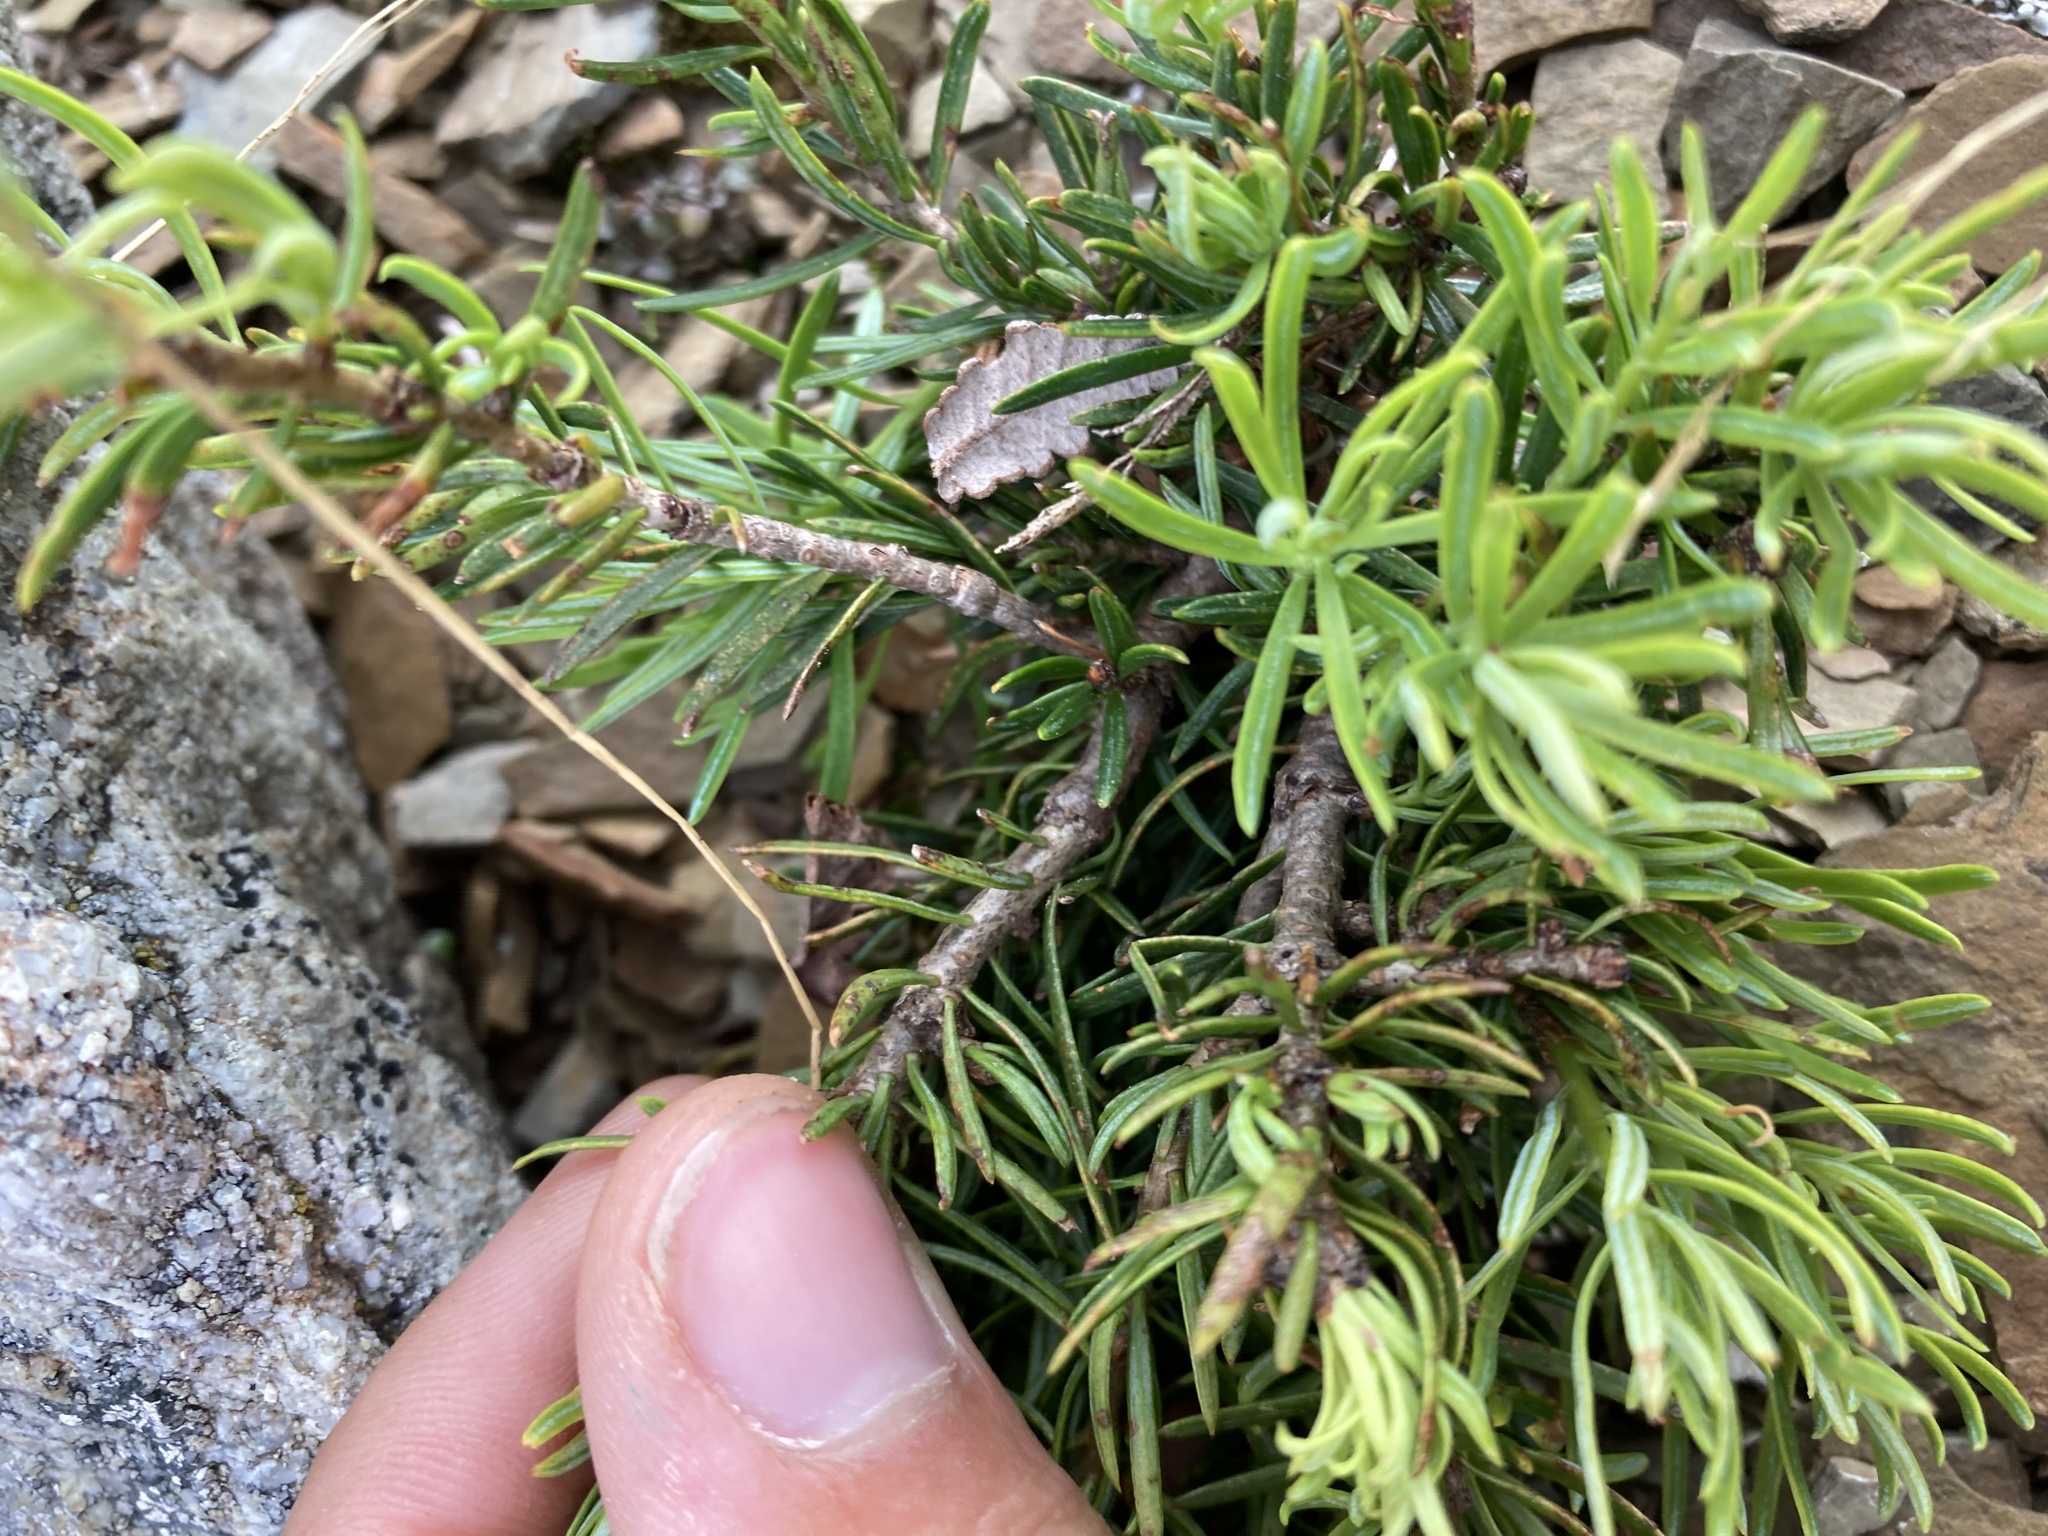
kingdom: Plantae
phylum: Tracheophyta
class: Pinopsida
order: Pinales
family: Pinaceae
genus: Abies
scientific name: Abies lasiocarpa
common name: Subalpine fir
